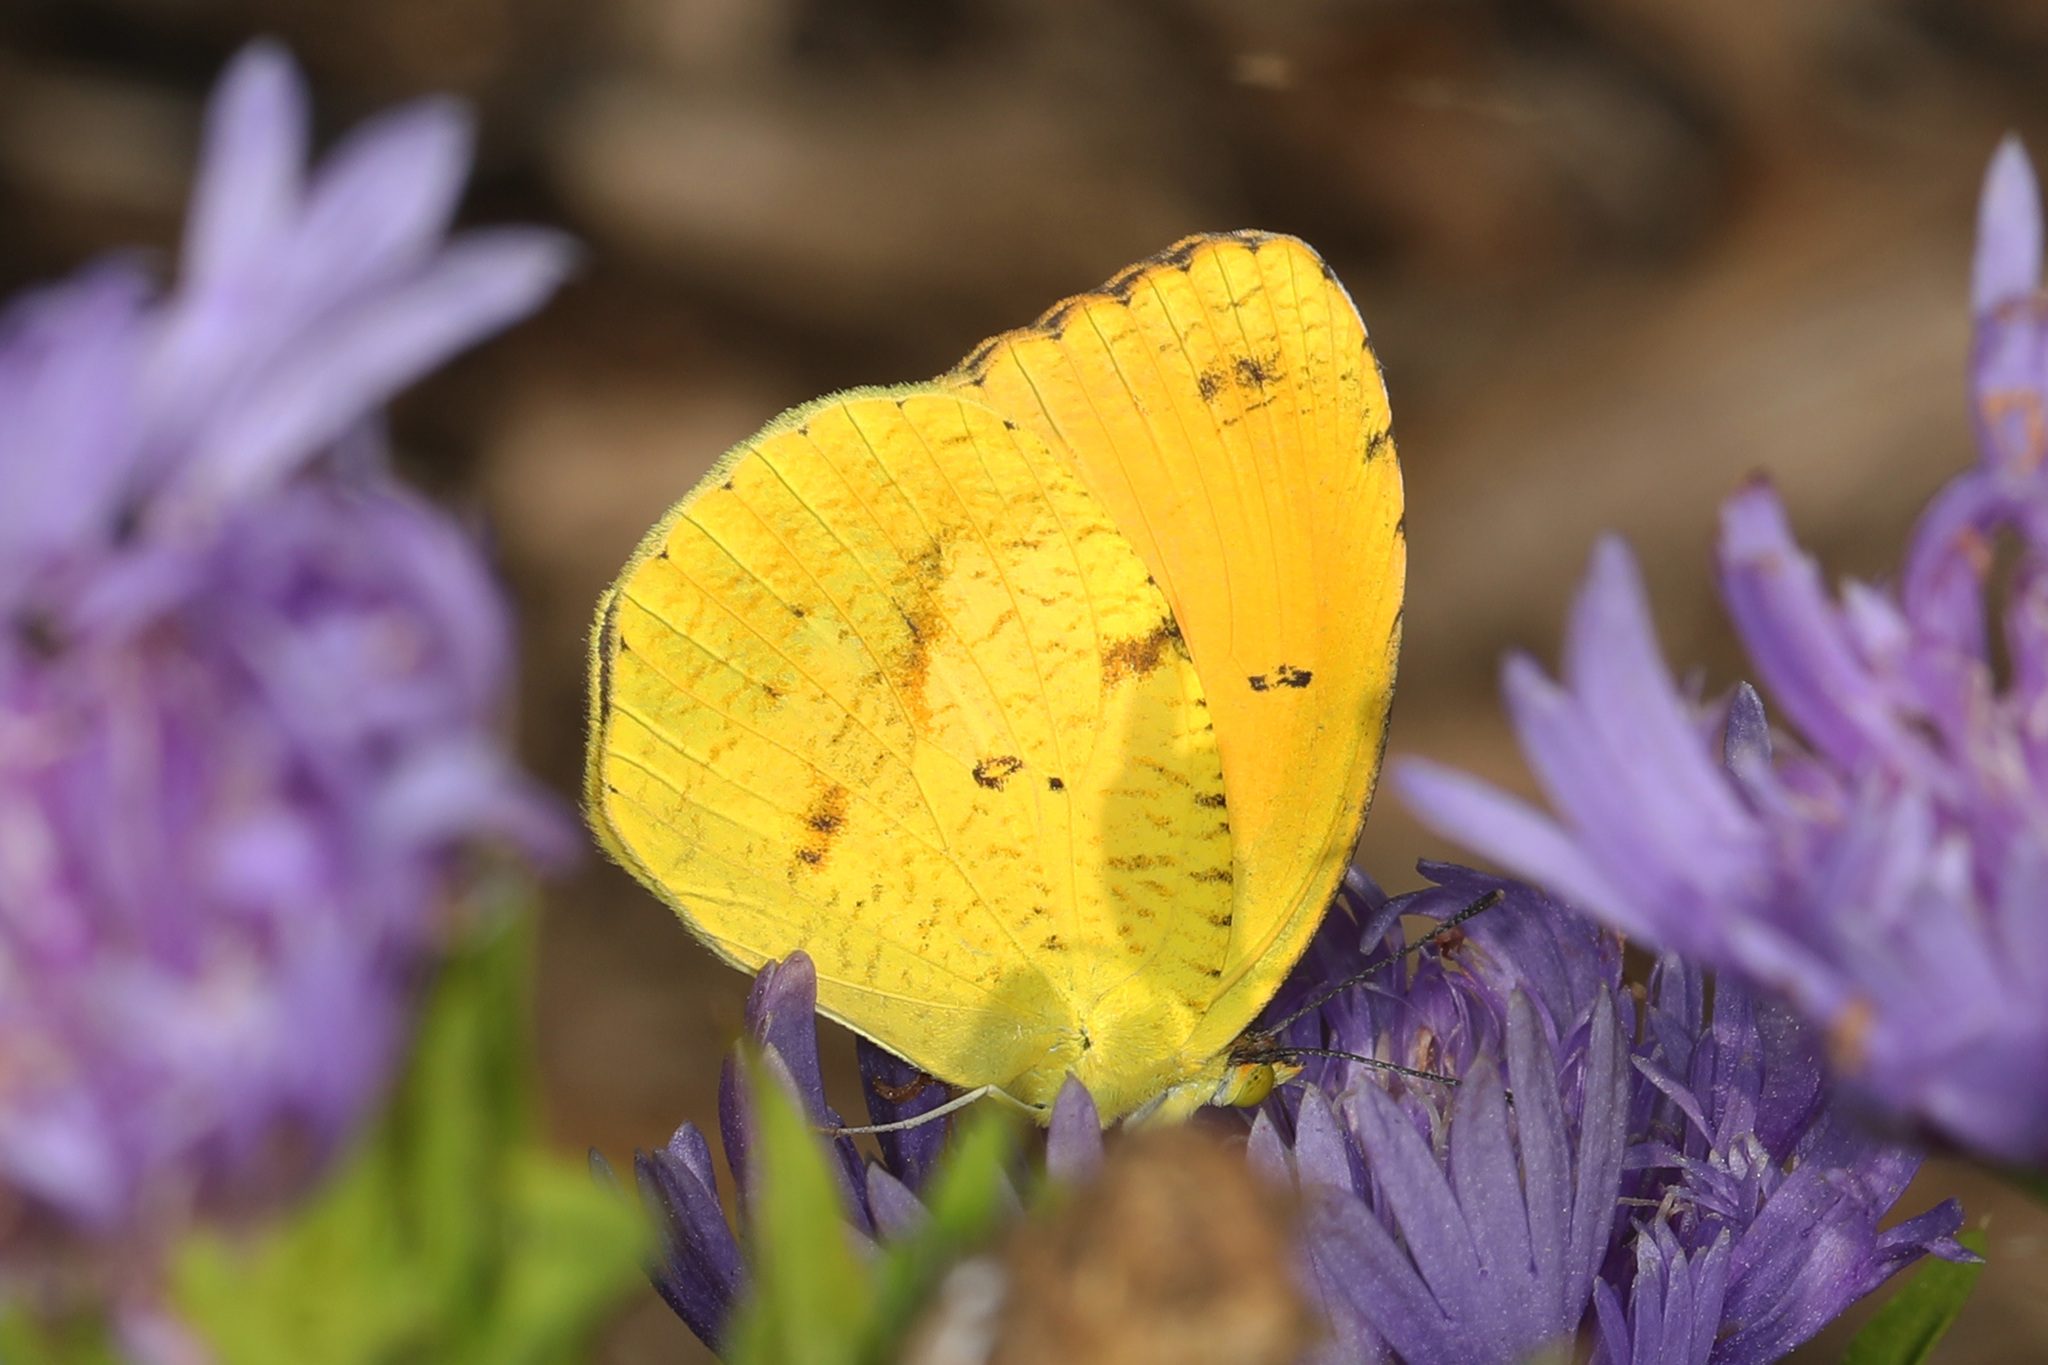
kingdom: Animalia
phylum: Arthropoda
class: Insecta
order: Lepidoptera
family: Pieridae
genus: Abaeis
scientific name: Abaeis nicippe
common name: Sleepy orange
